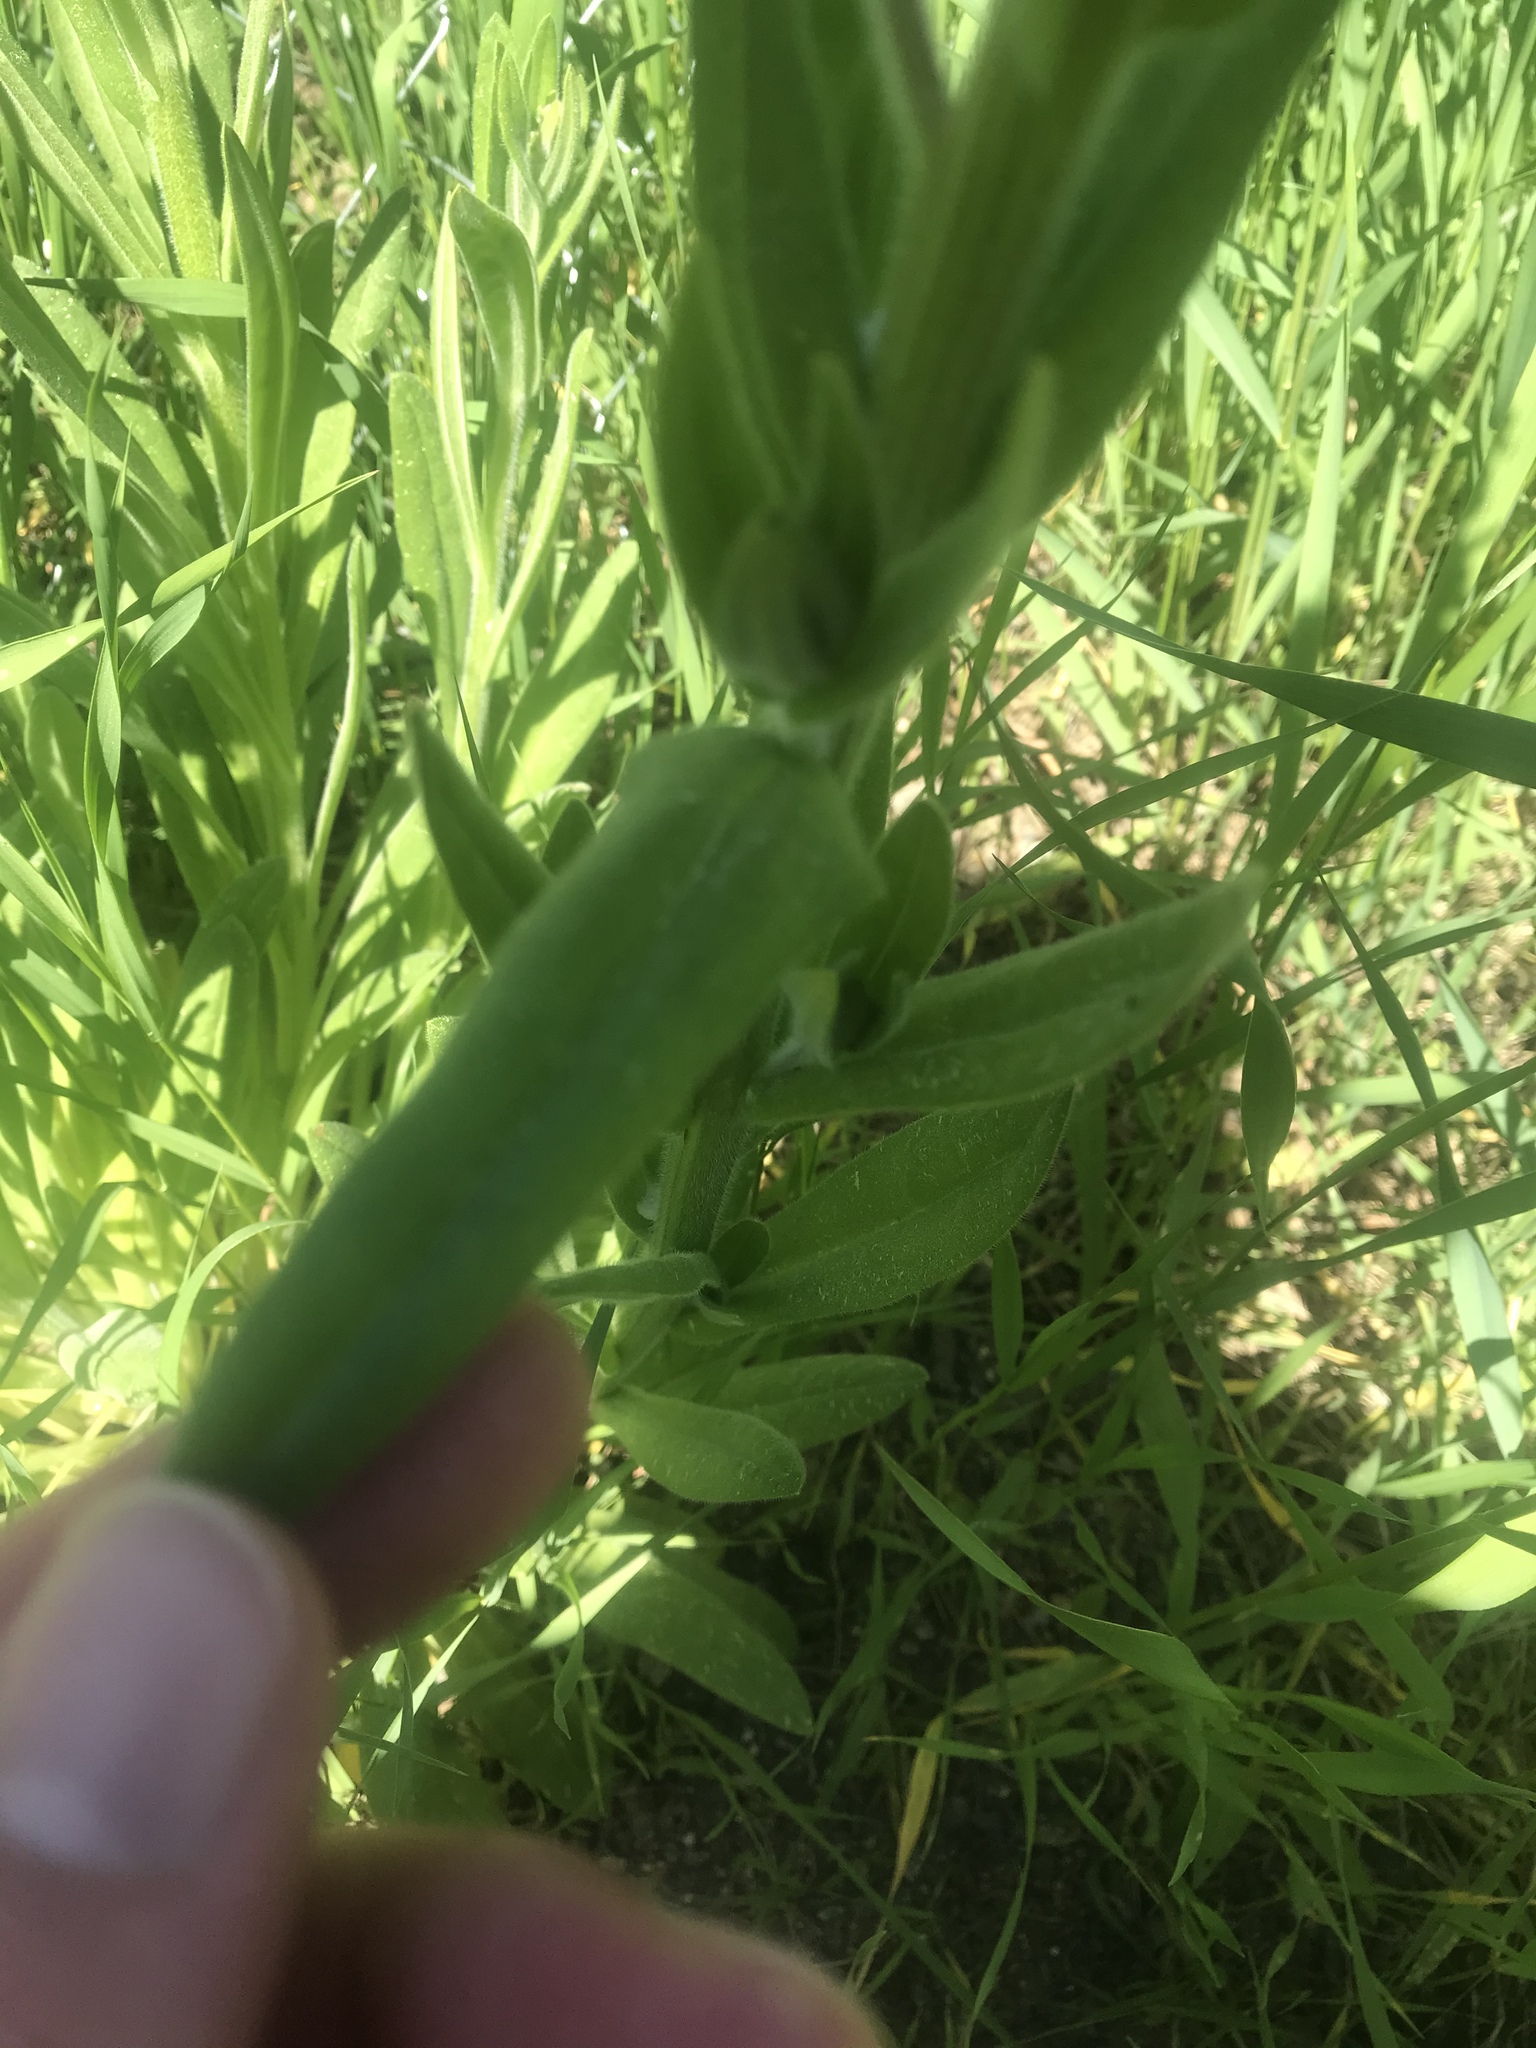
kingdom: Plantae
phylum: Tracheophyta
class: Magnoliopsida
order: Boraginales
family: Boraginaceae
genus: Anchusa
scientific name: Anchusa officinalis
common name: Alkanet
